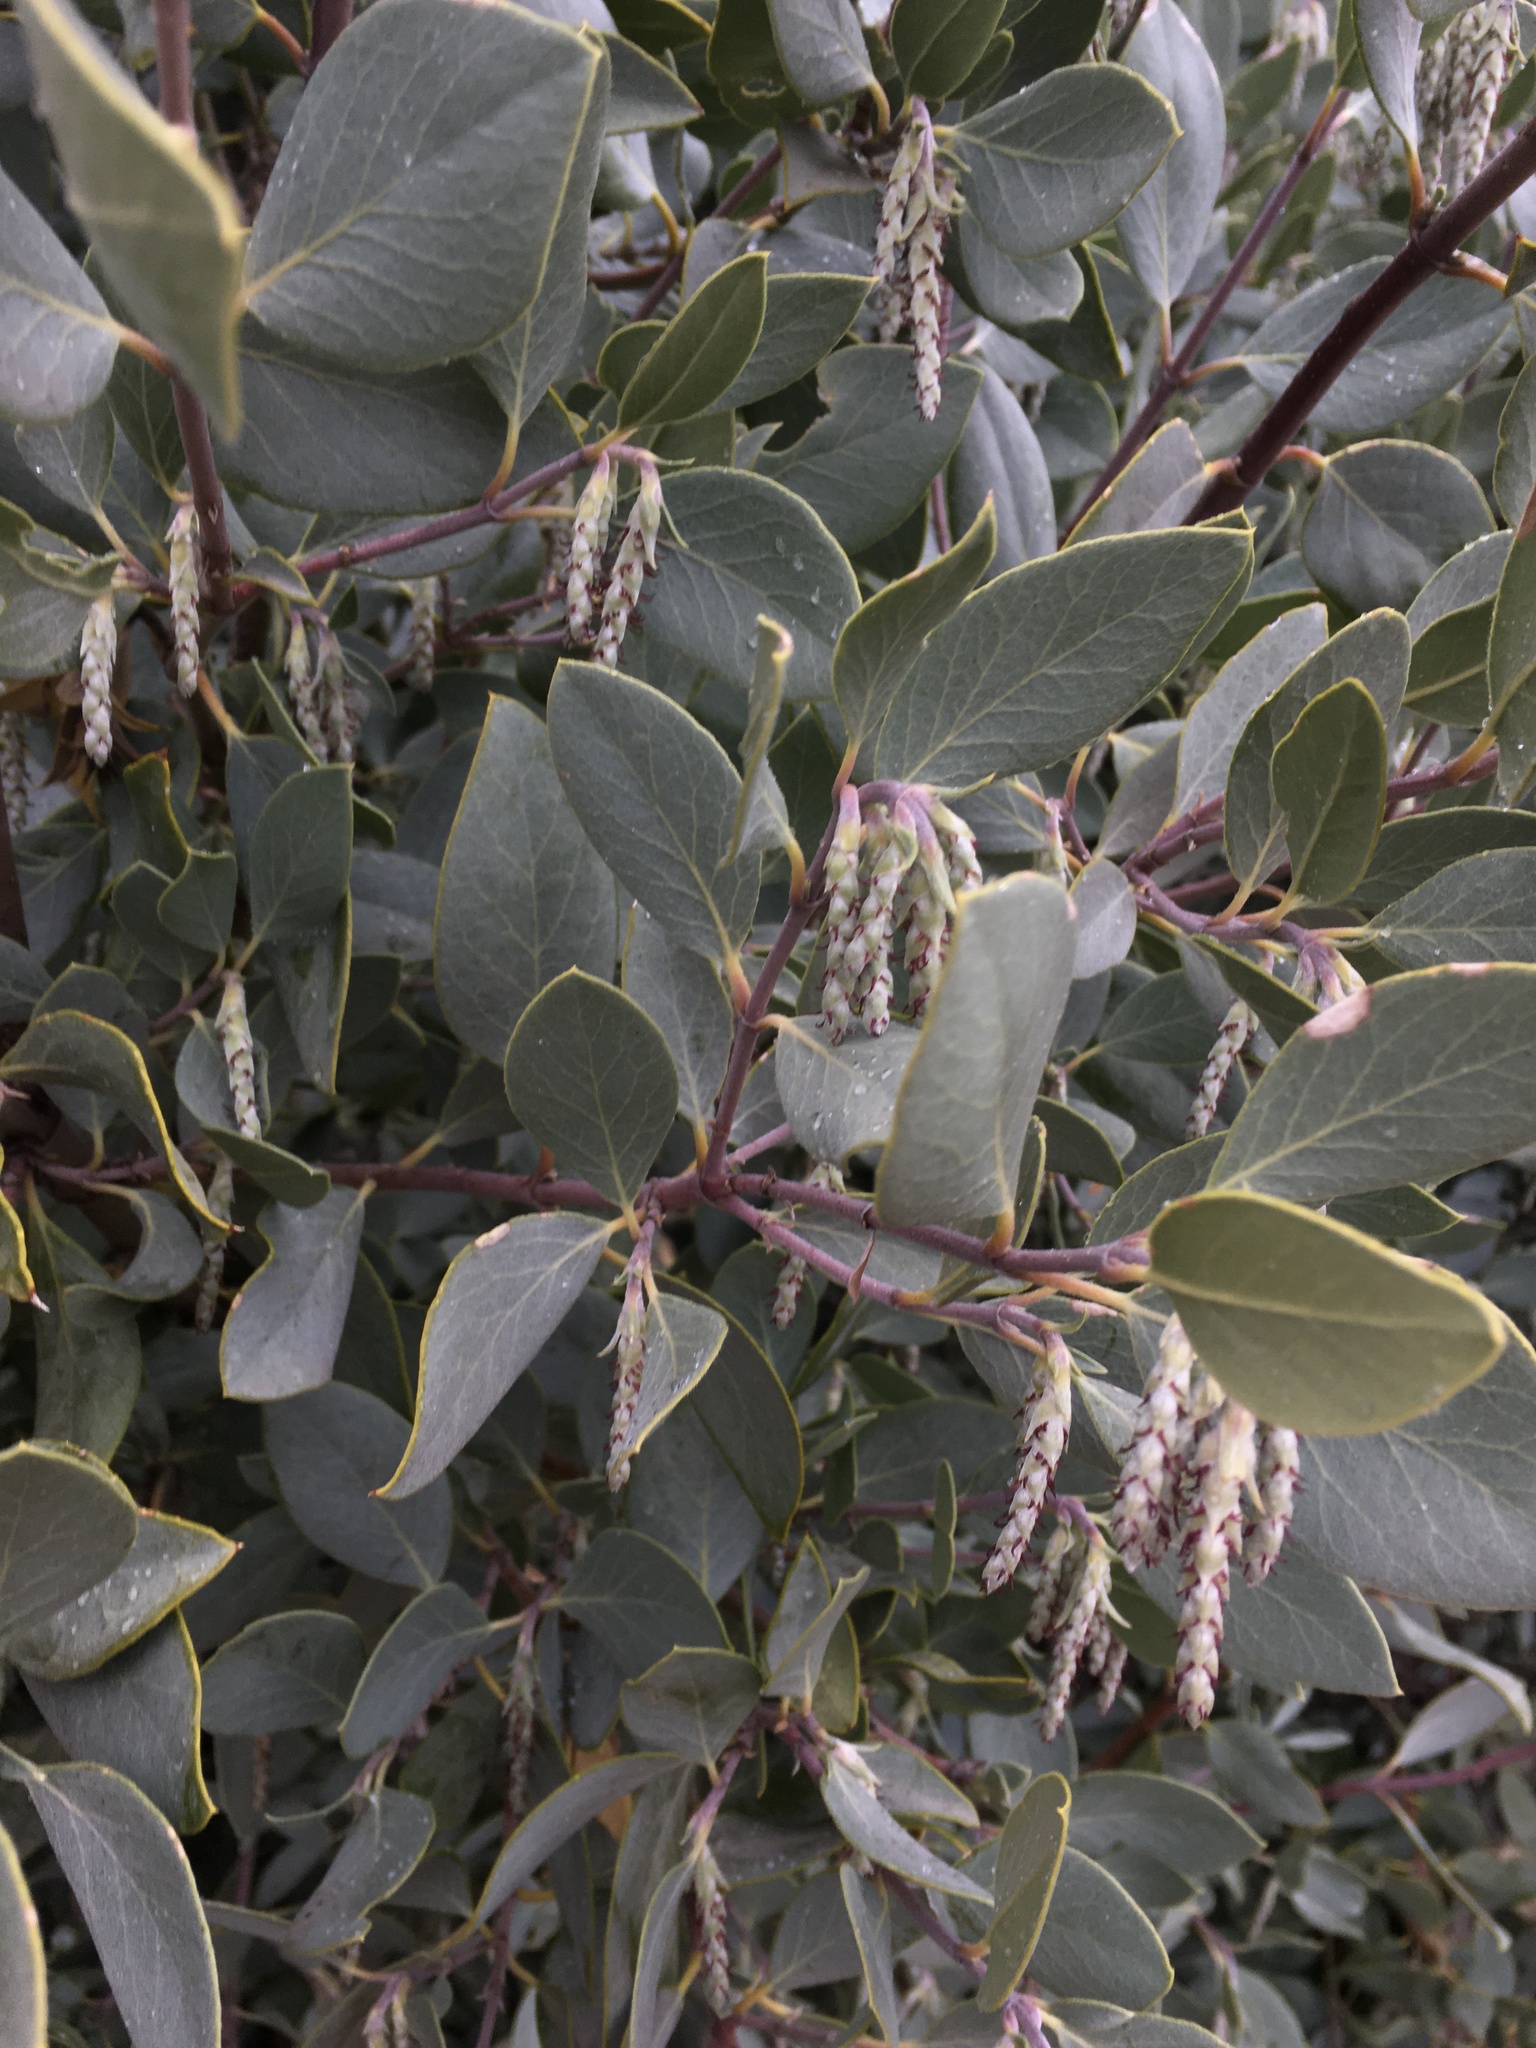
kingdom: Plantae
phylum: Tracheophyta
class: Magnoliopsida
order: Garryales
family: Garryaceae
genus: Garrya
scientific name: Garrya wrightii
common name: Wright's silktassel
